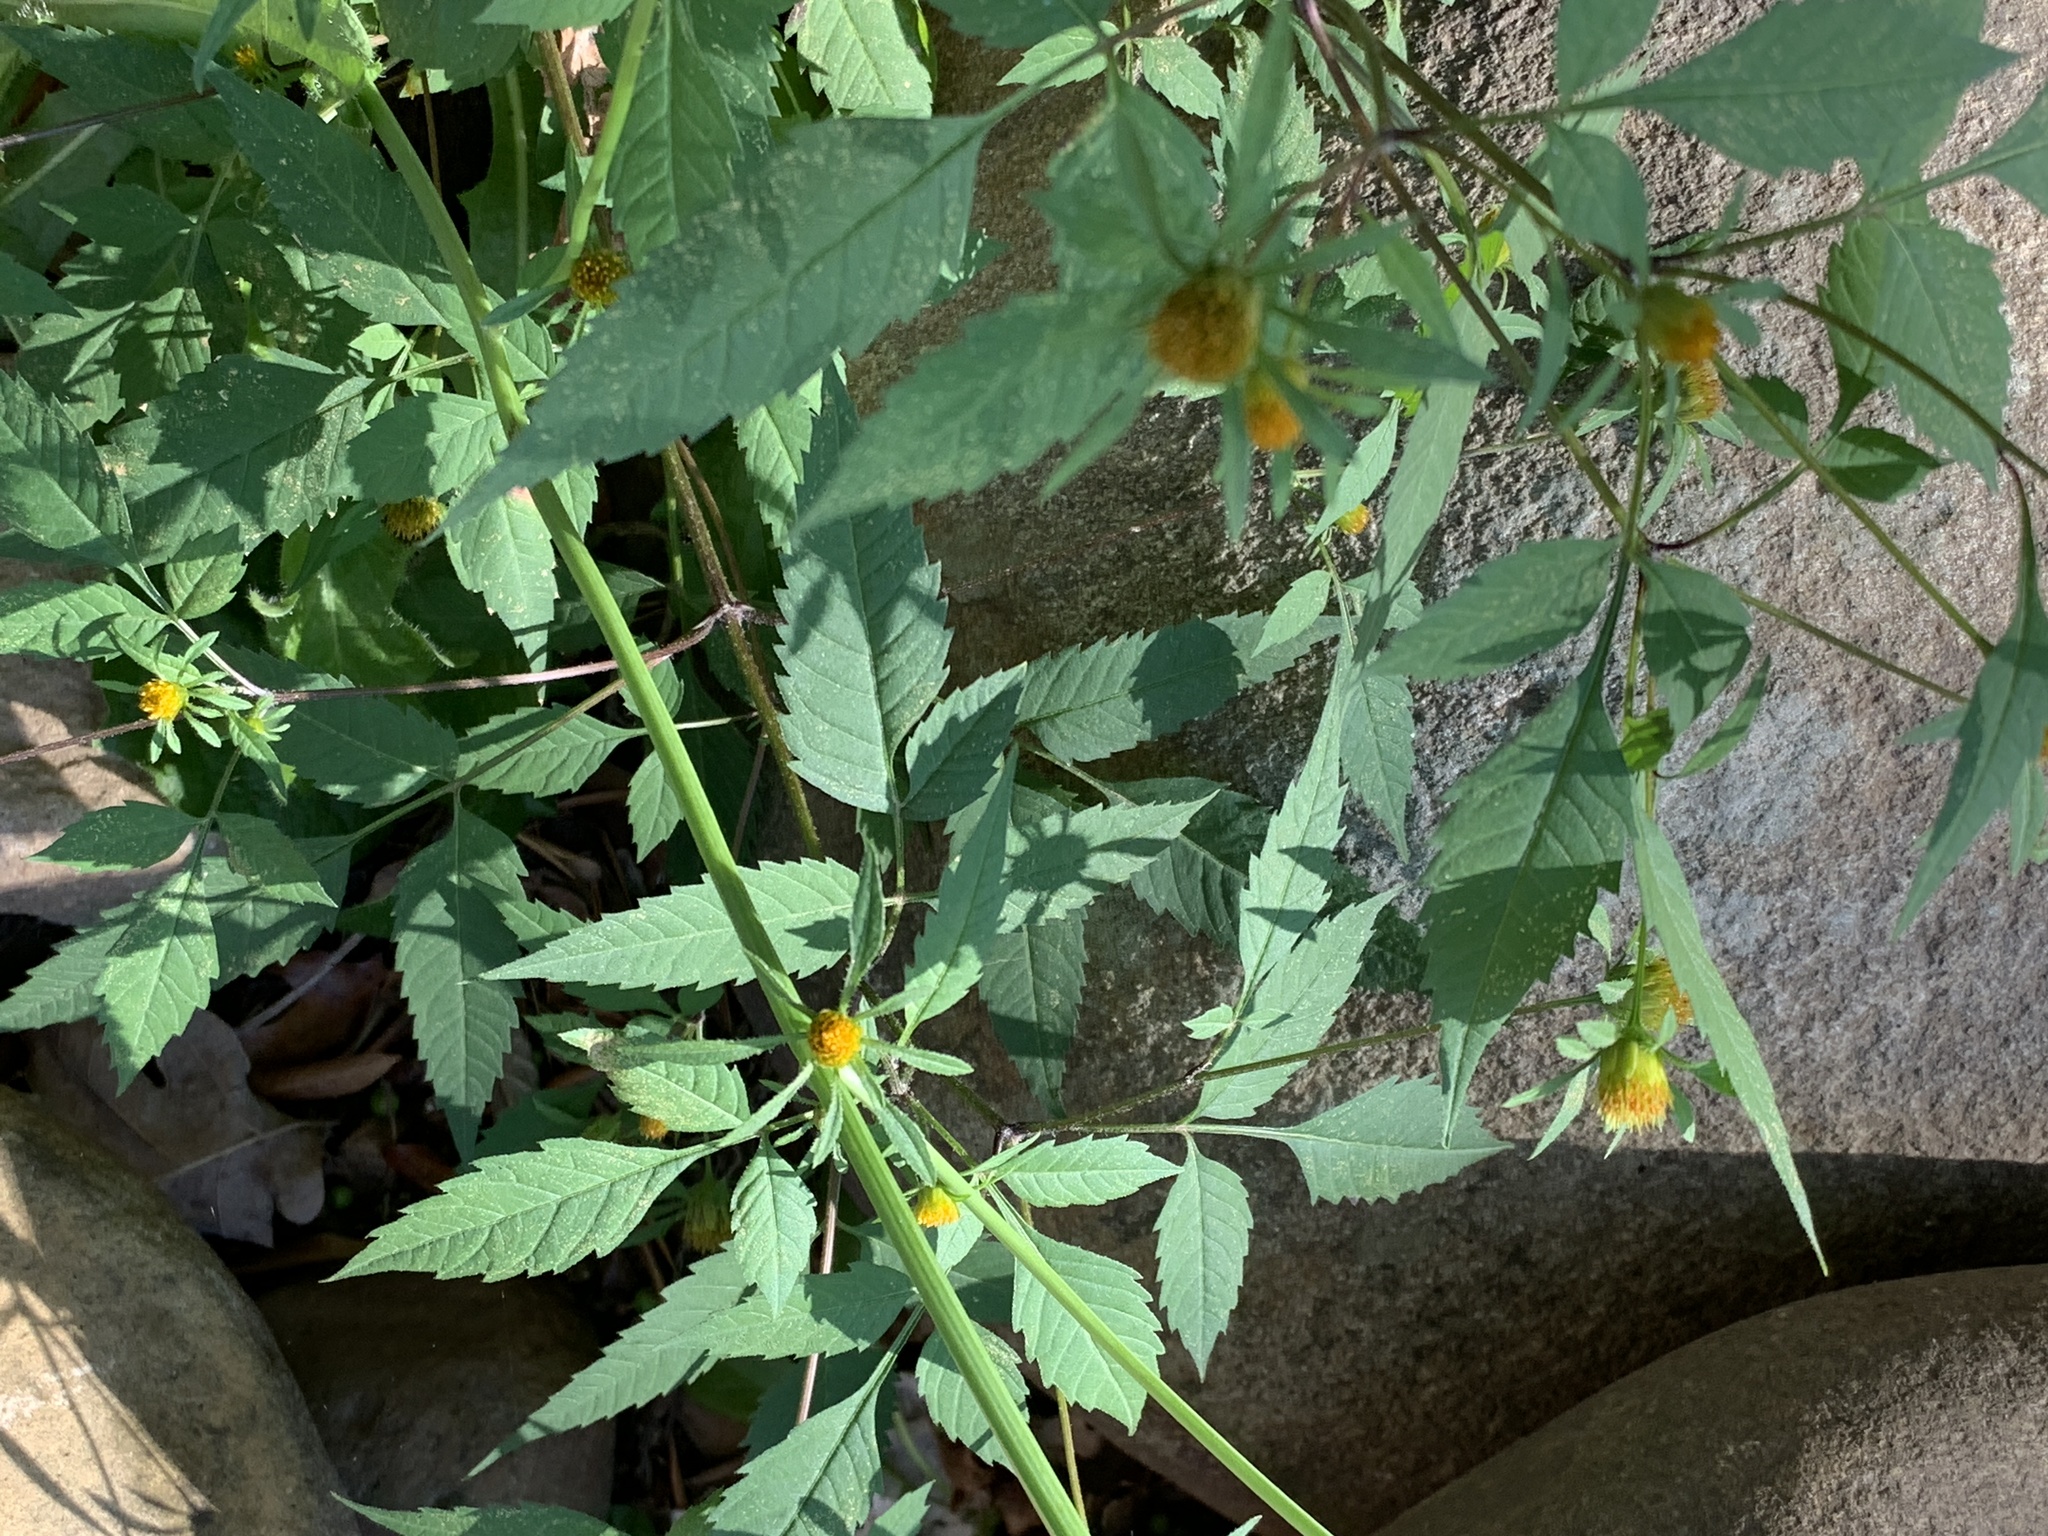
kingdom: Plantae
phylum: Tracheophyta
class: Magnoliopsida
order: Asterales
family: Asteraceae
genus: Bidens
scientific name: Bidens frondosa
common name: Beggarticks
